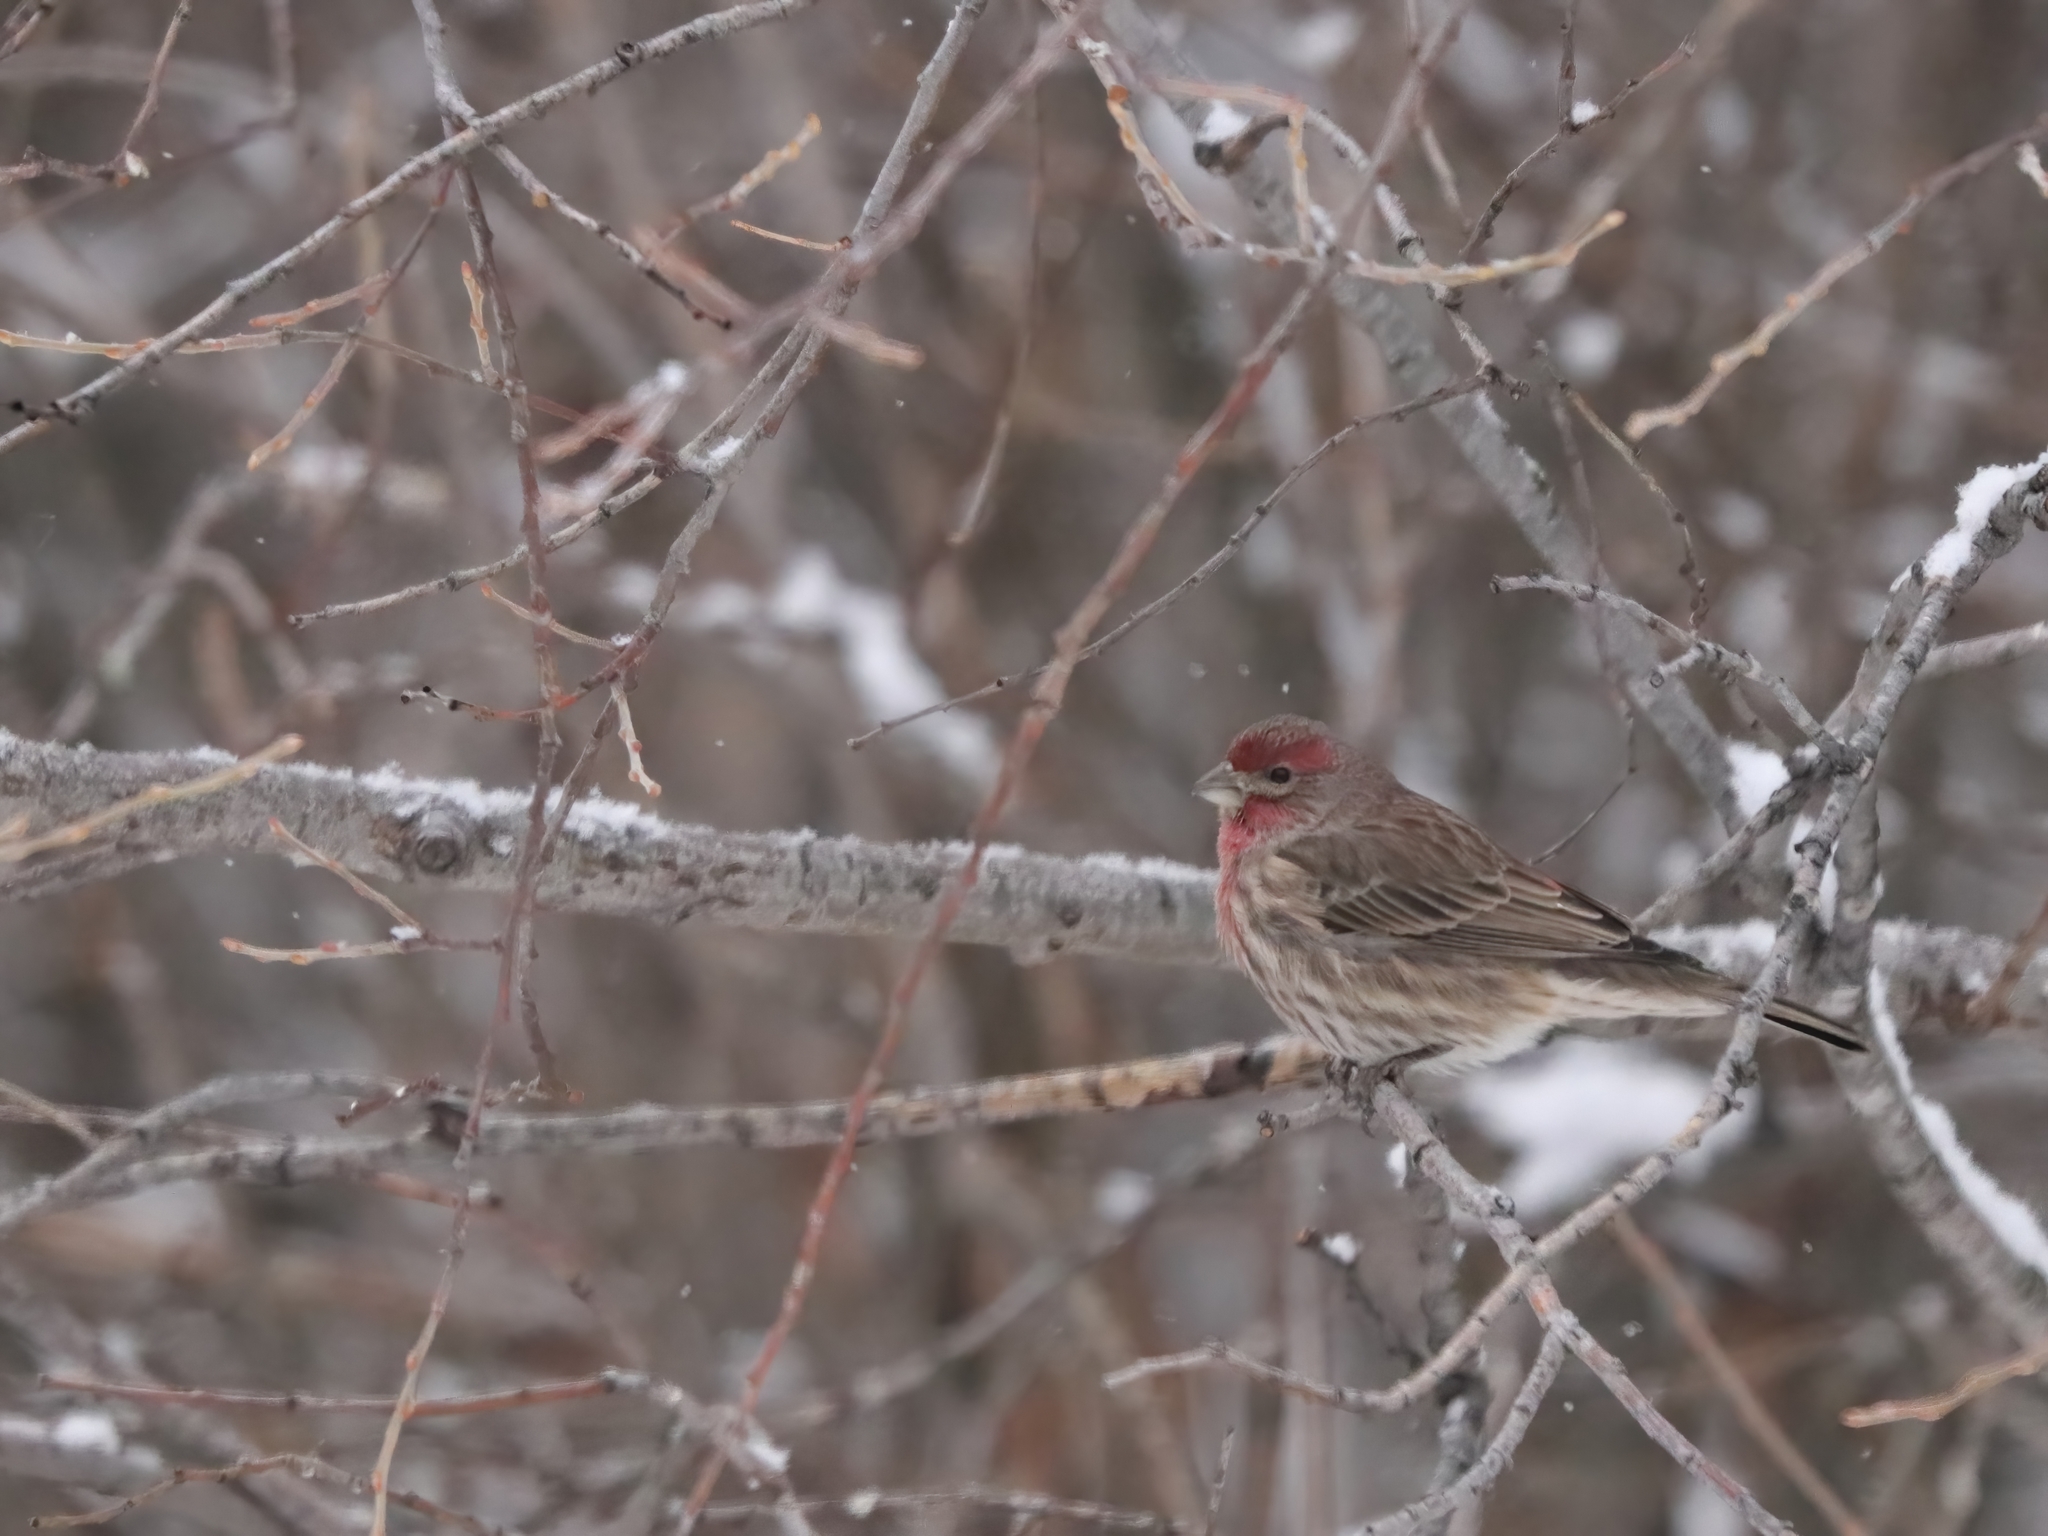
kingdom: Animalia
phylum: Chordata
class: Aves
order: Passeriformes
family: Fringillidae
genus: Haemorhous
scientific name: Haemorhous mexicanus
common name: House finch
